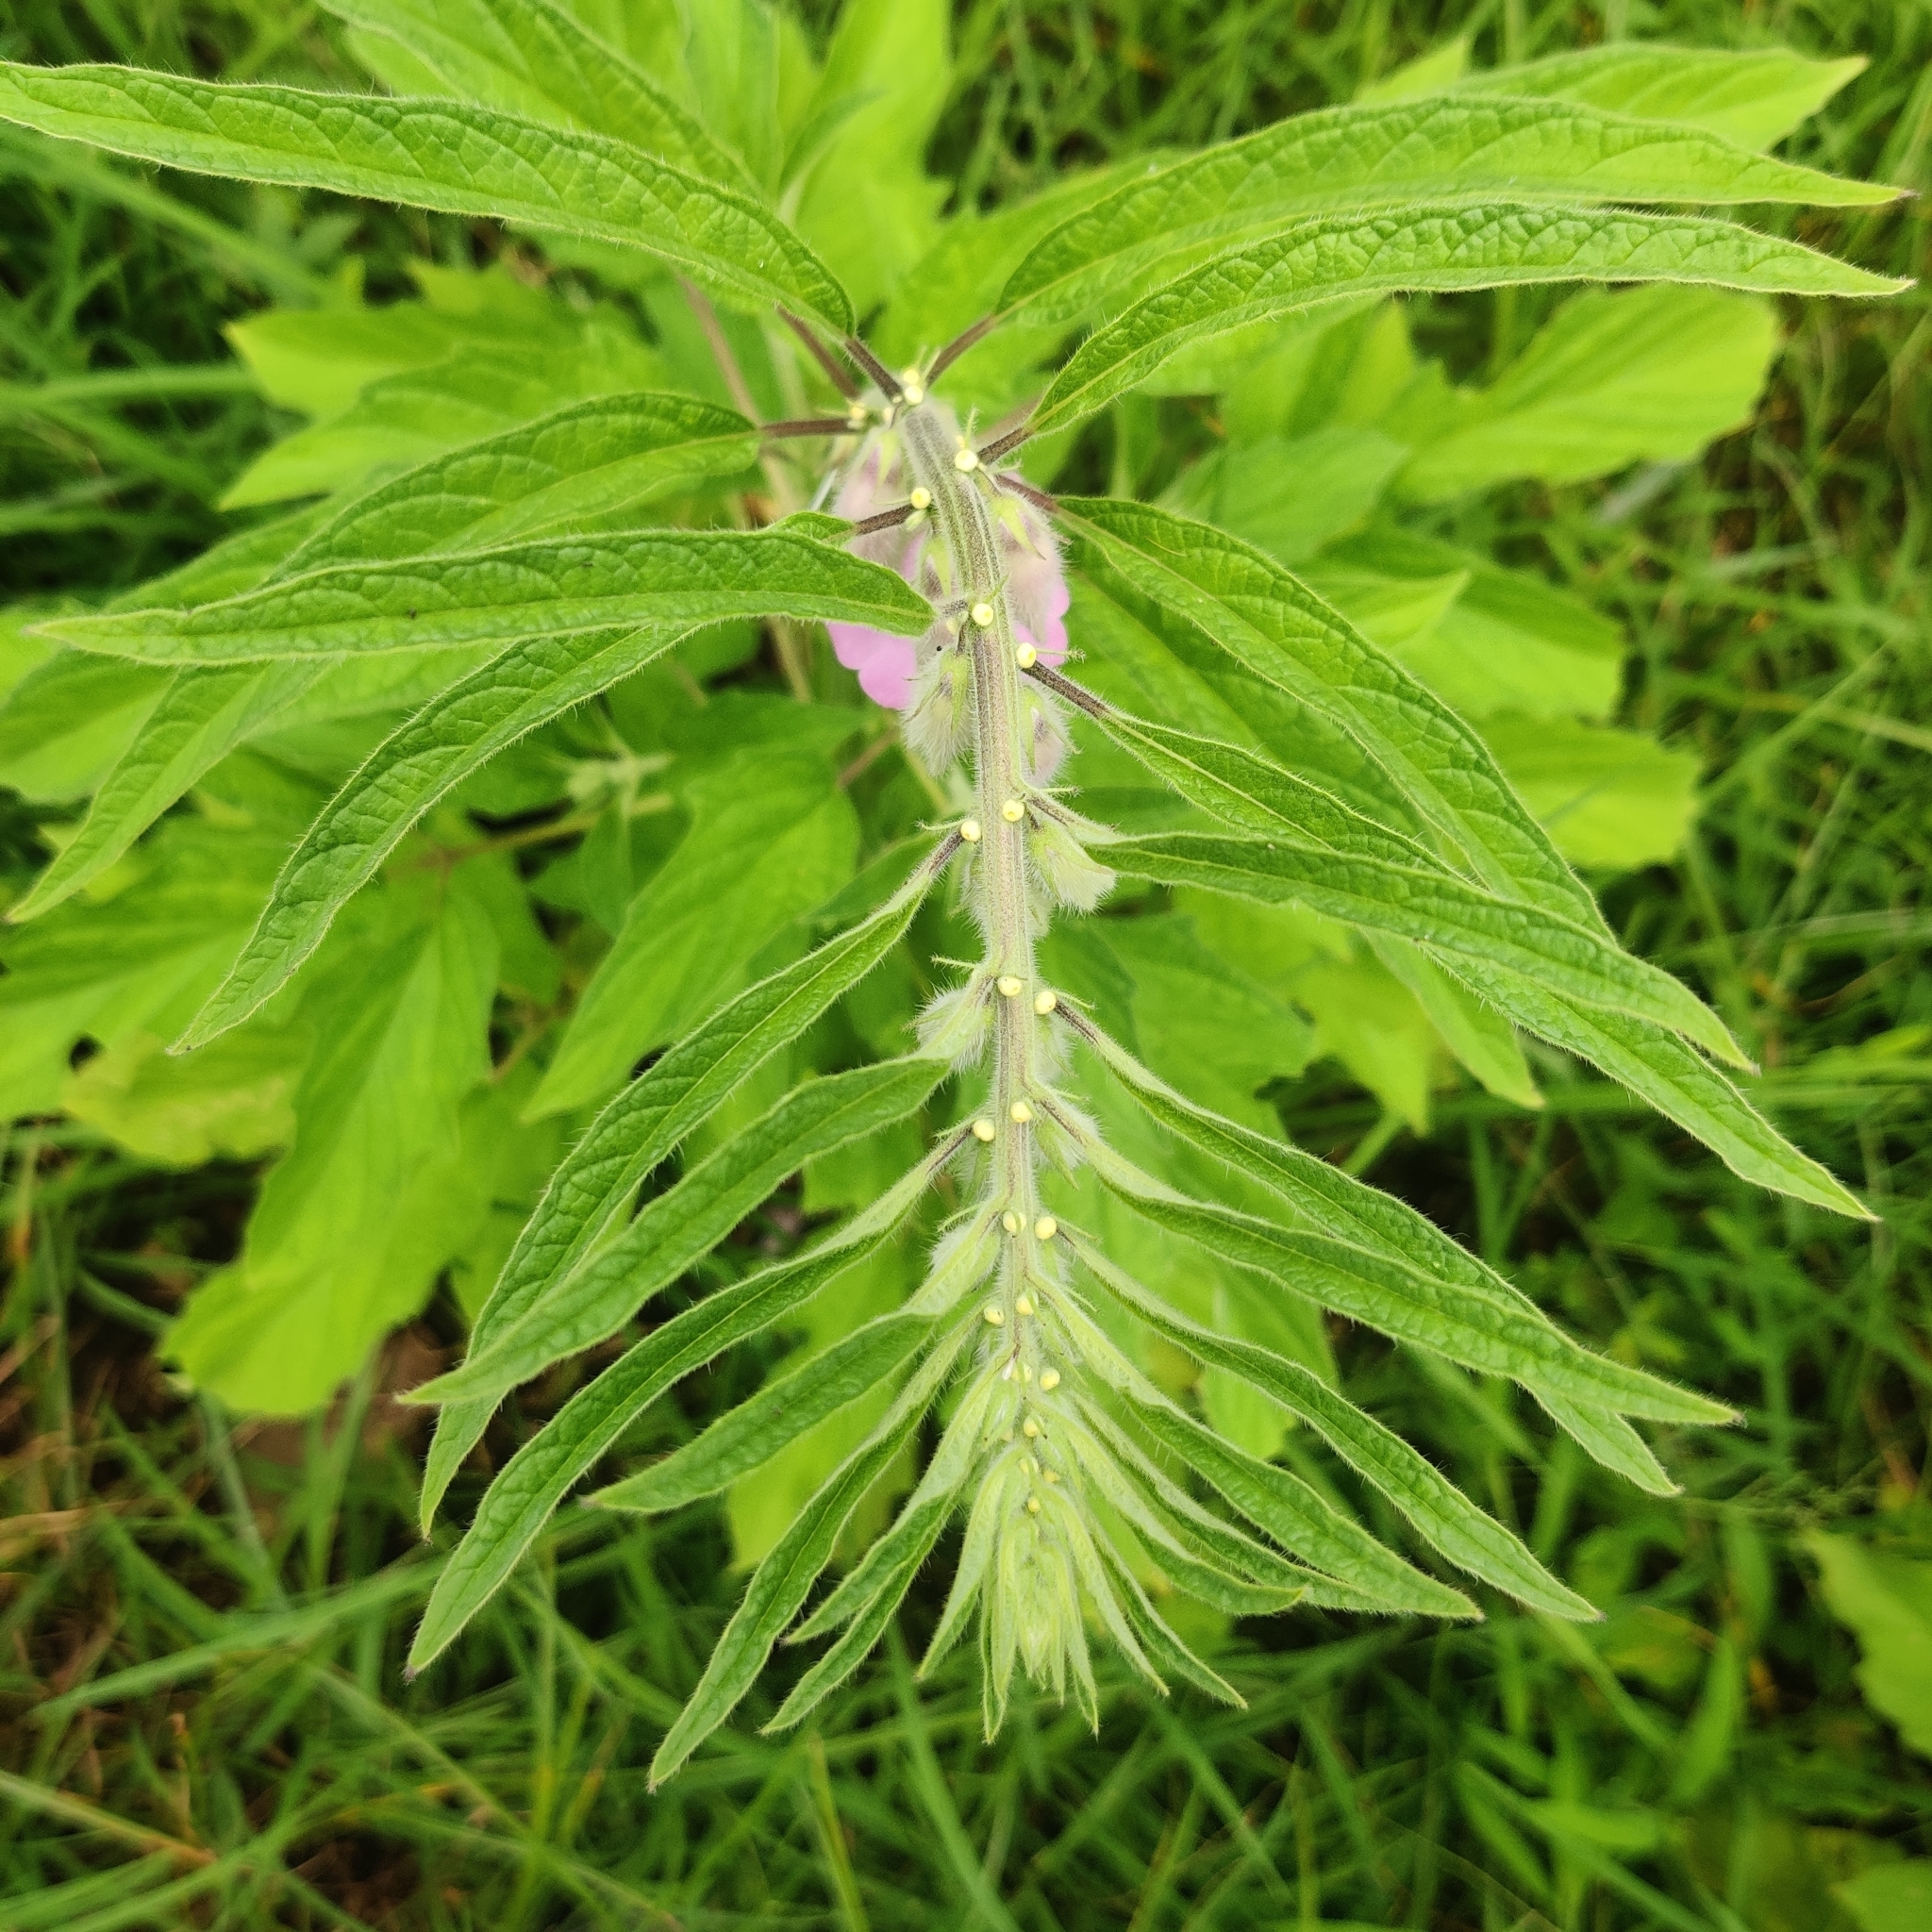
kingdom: Plantae
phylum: Tracheophyta
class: Magnoliopsida
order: Lamiales
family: Pedaliaceae
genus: Sesamum
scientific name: Sesamum indicum
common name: Sesame
